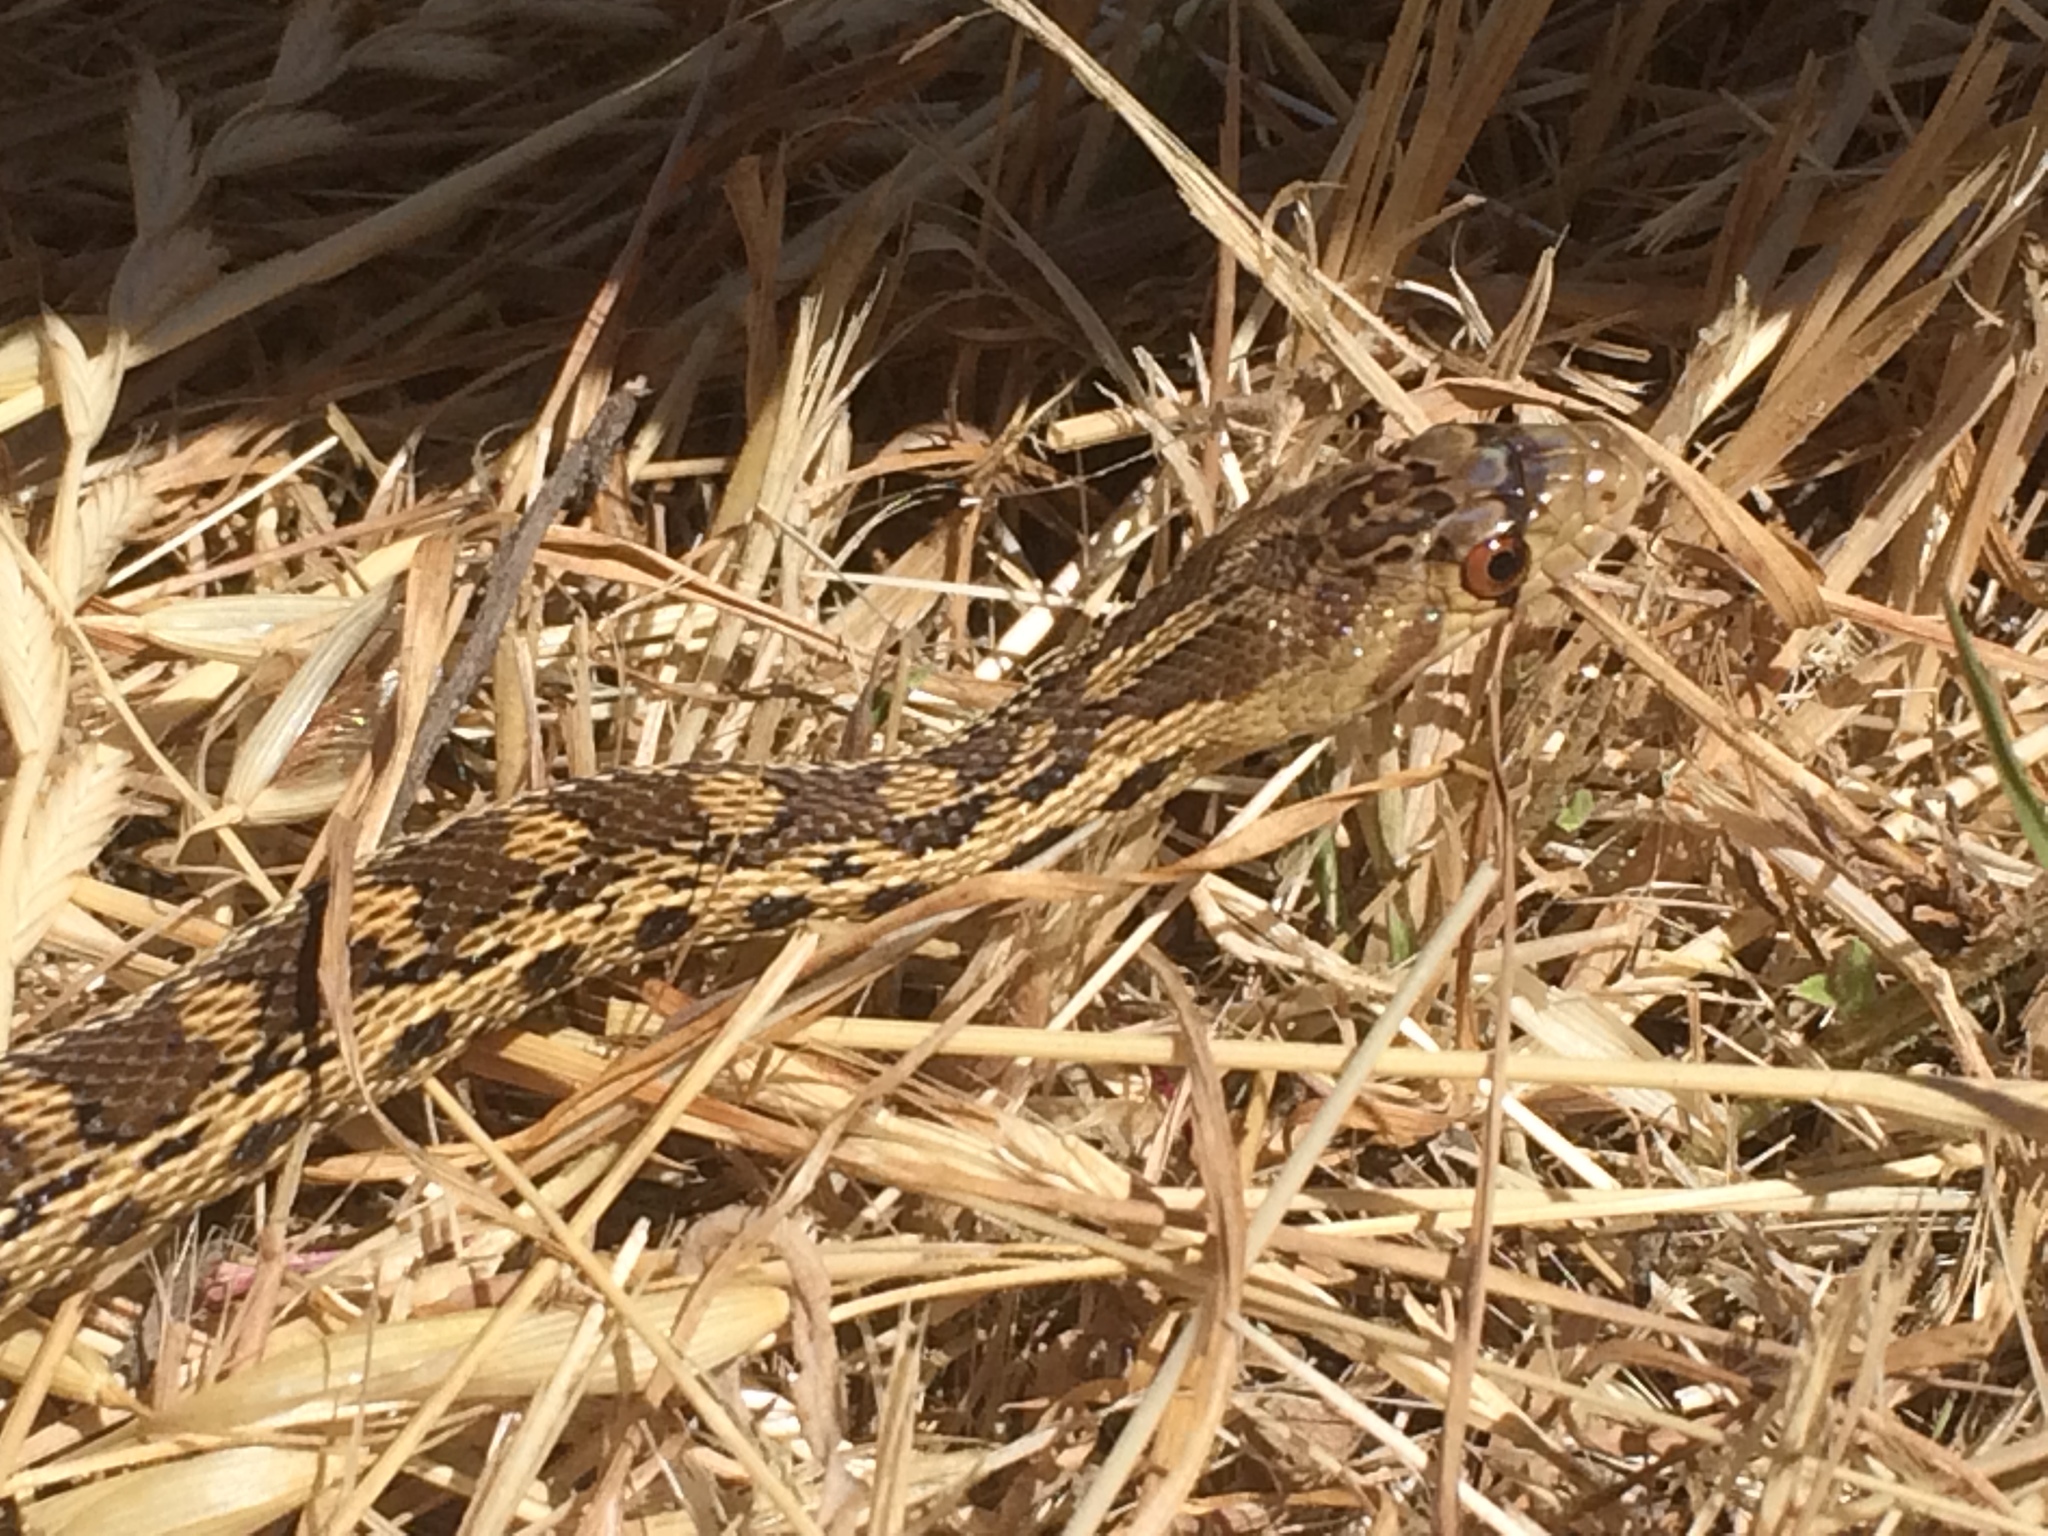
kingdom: Animalia
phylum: Chordata
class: Squamata
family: Colubridae
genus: Pituophis
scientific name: Pituophis catenifer
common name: Gopher snake
